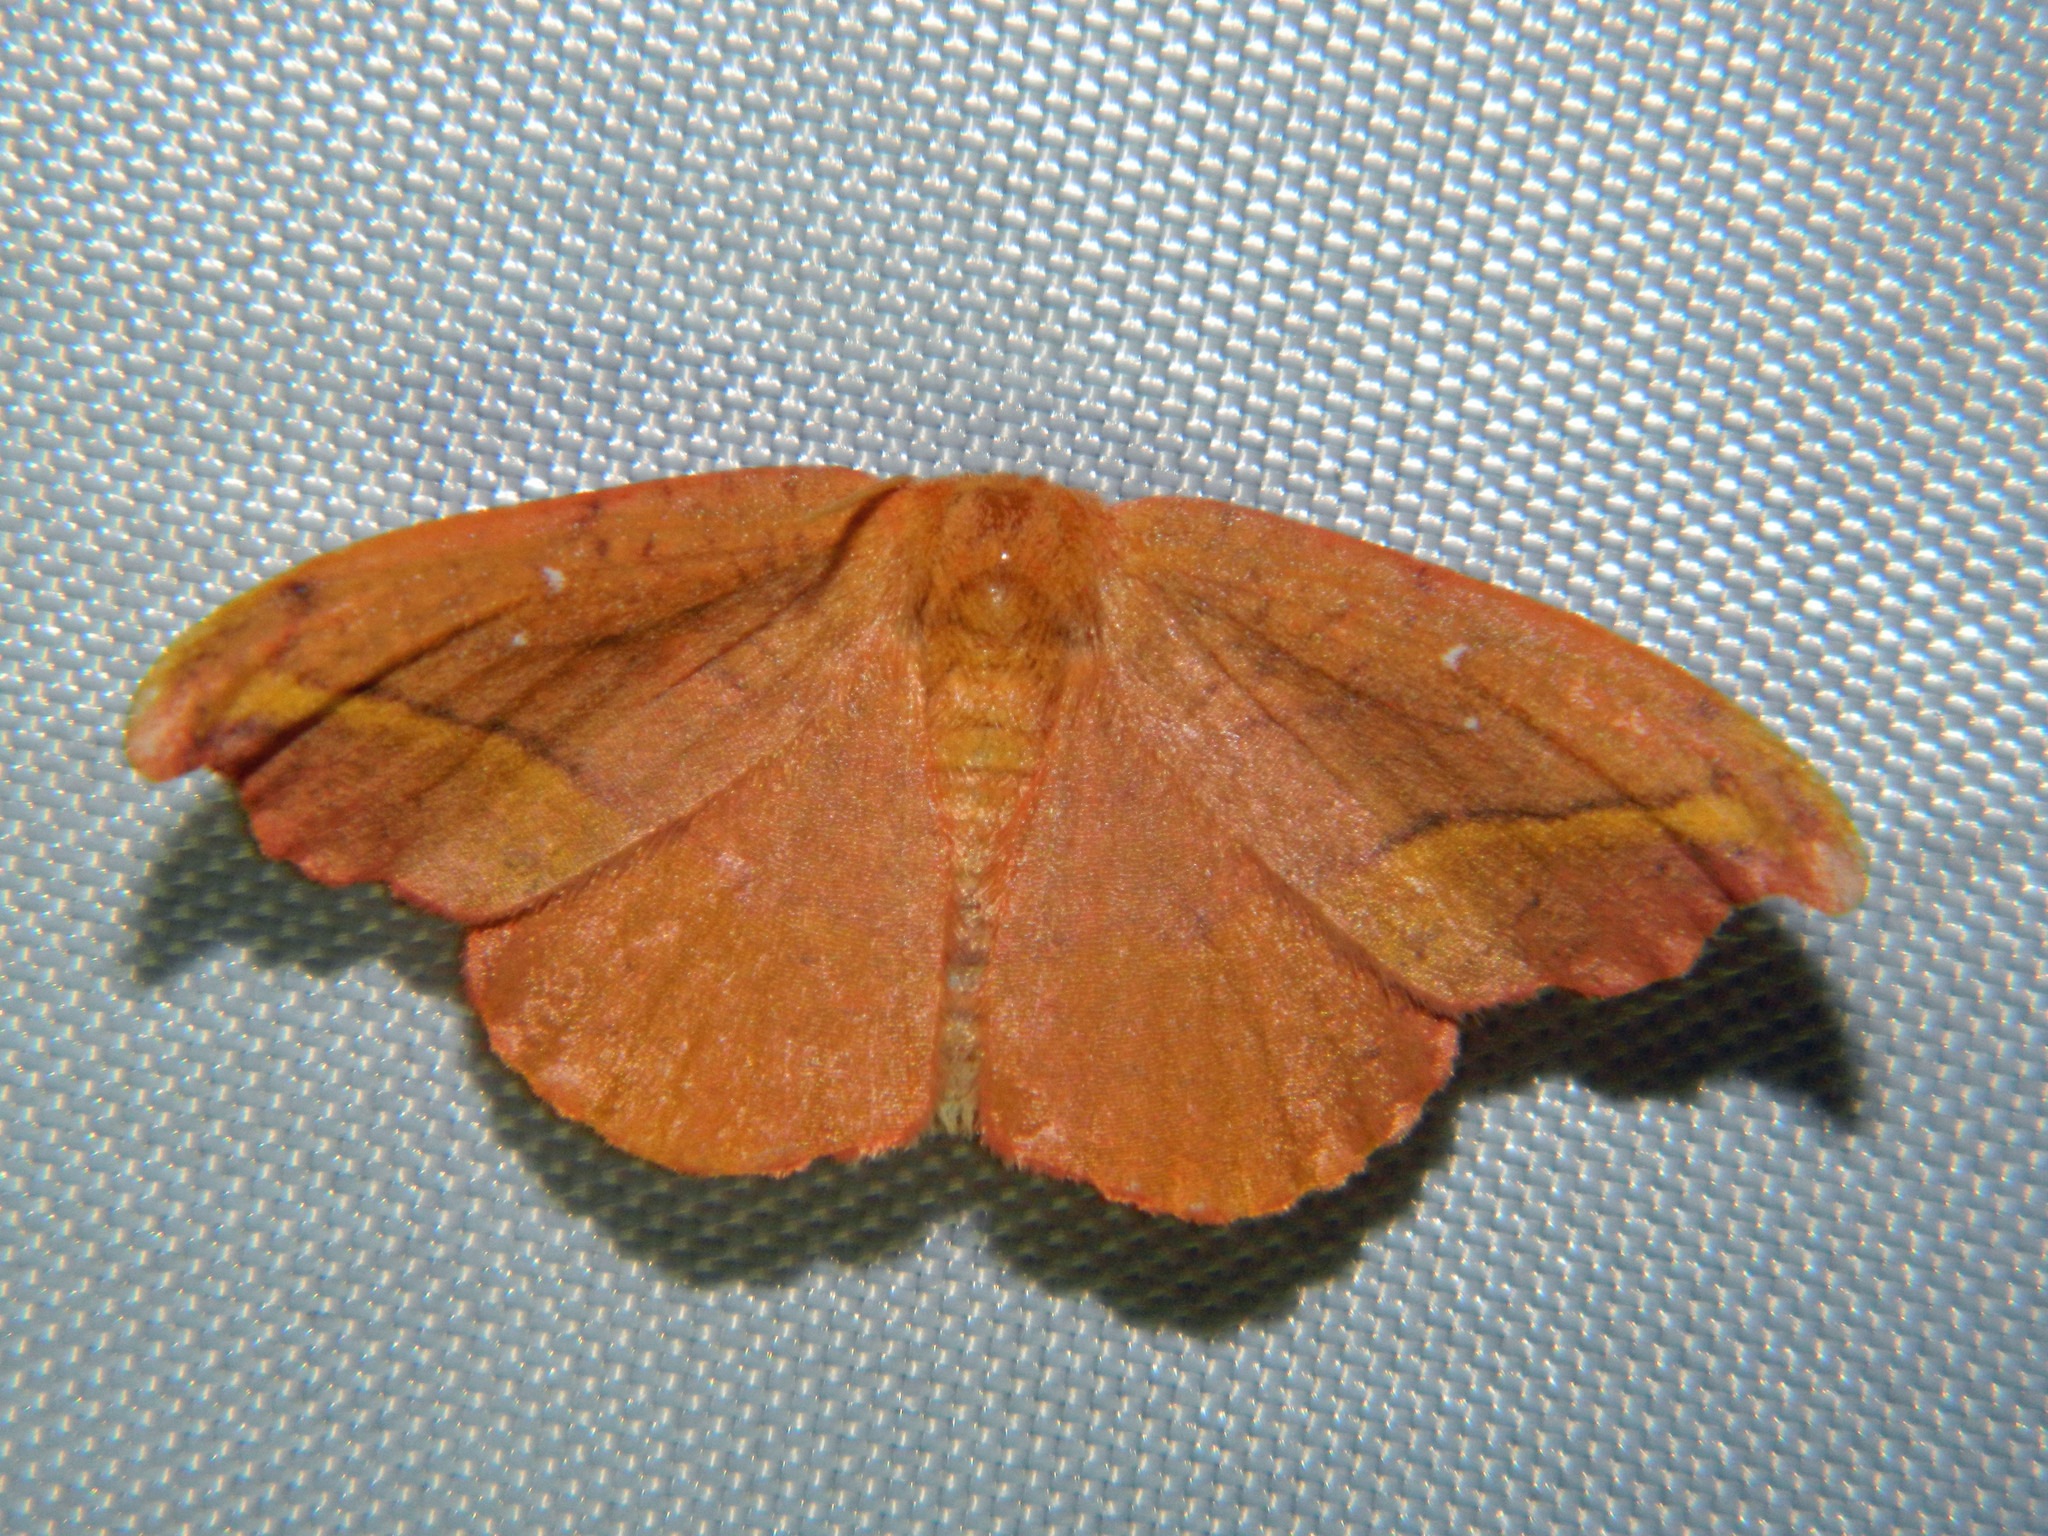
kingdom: Animalia
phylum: Arthropoda
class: Insecta
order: Lepidoptera
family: Drepanidae
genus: Oreta
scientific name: Oreta rosea
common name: Rose hooktip
